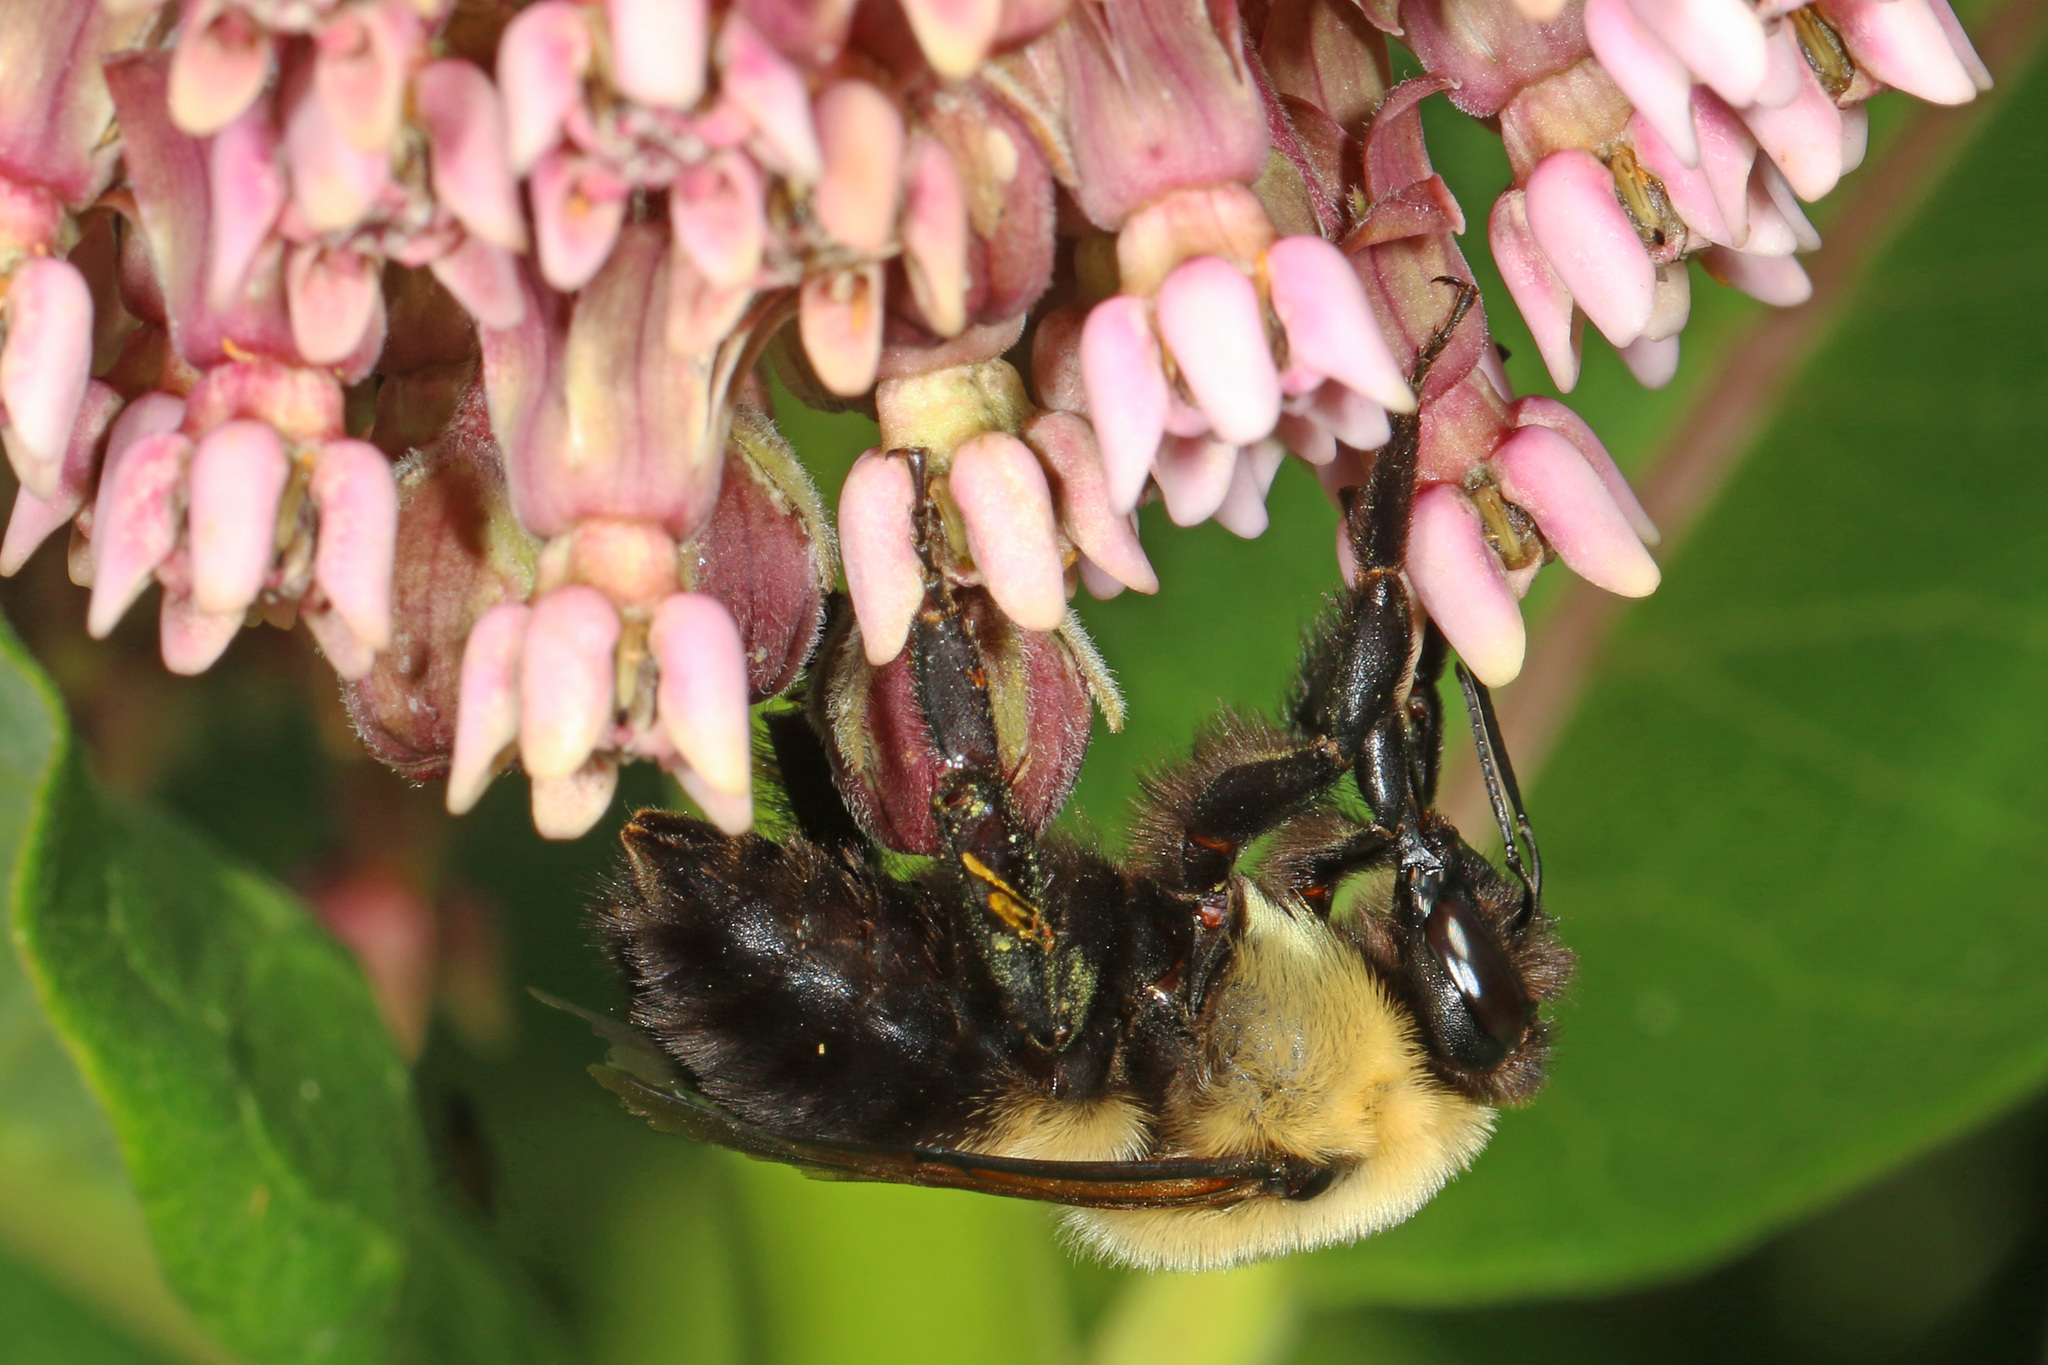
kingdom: Animalia
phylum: Arthropoda
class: Insecta
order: Hymenoptera
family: Apidae
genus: Bombus
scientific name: Bombus griseocollis
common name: Brown-belted bumble bee
